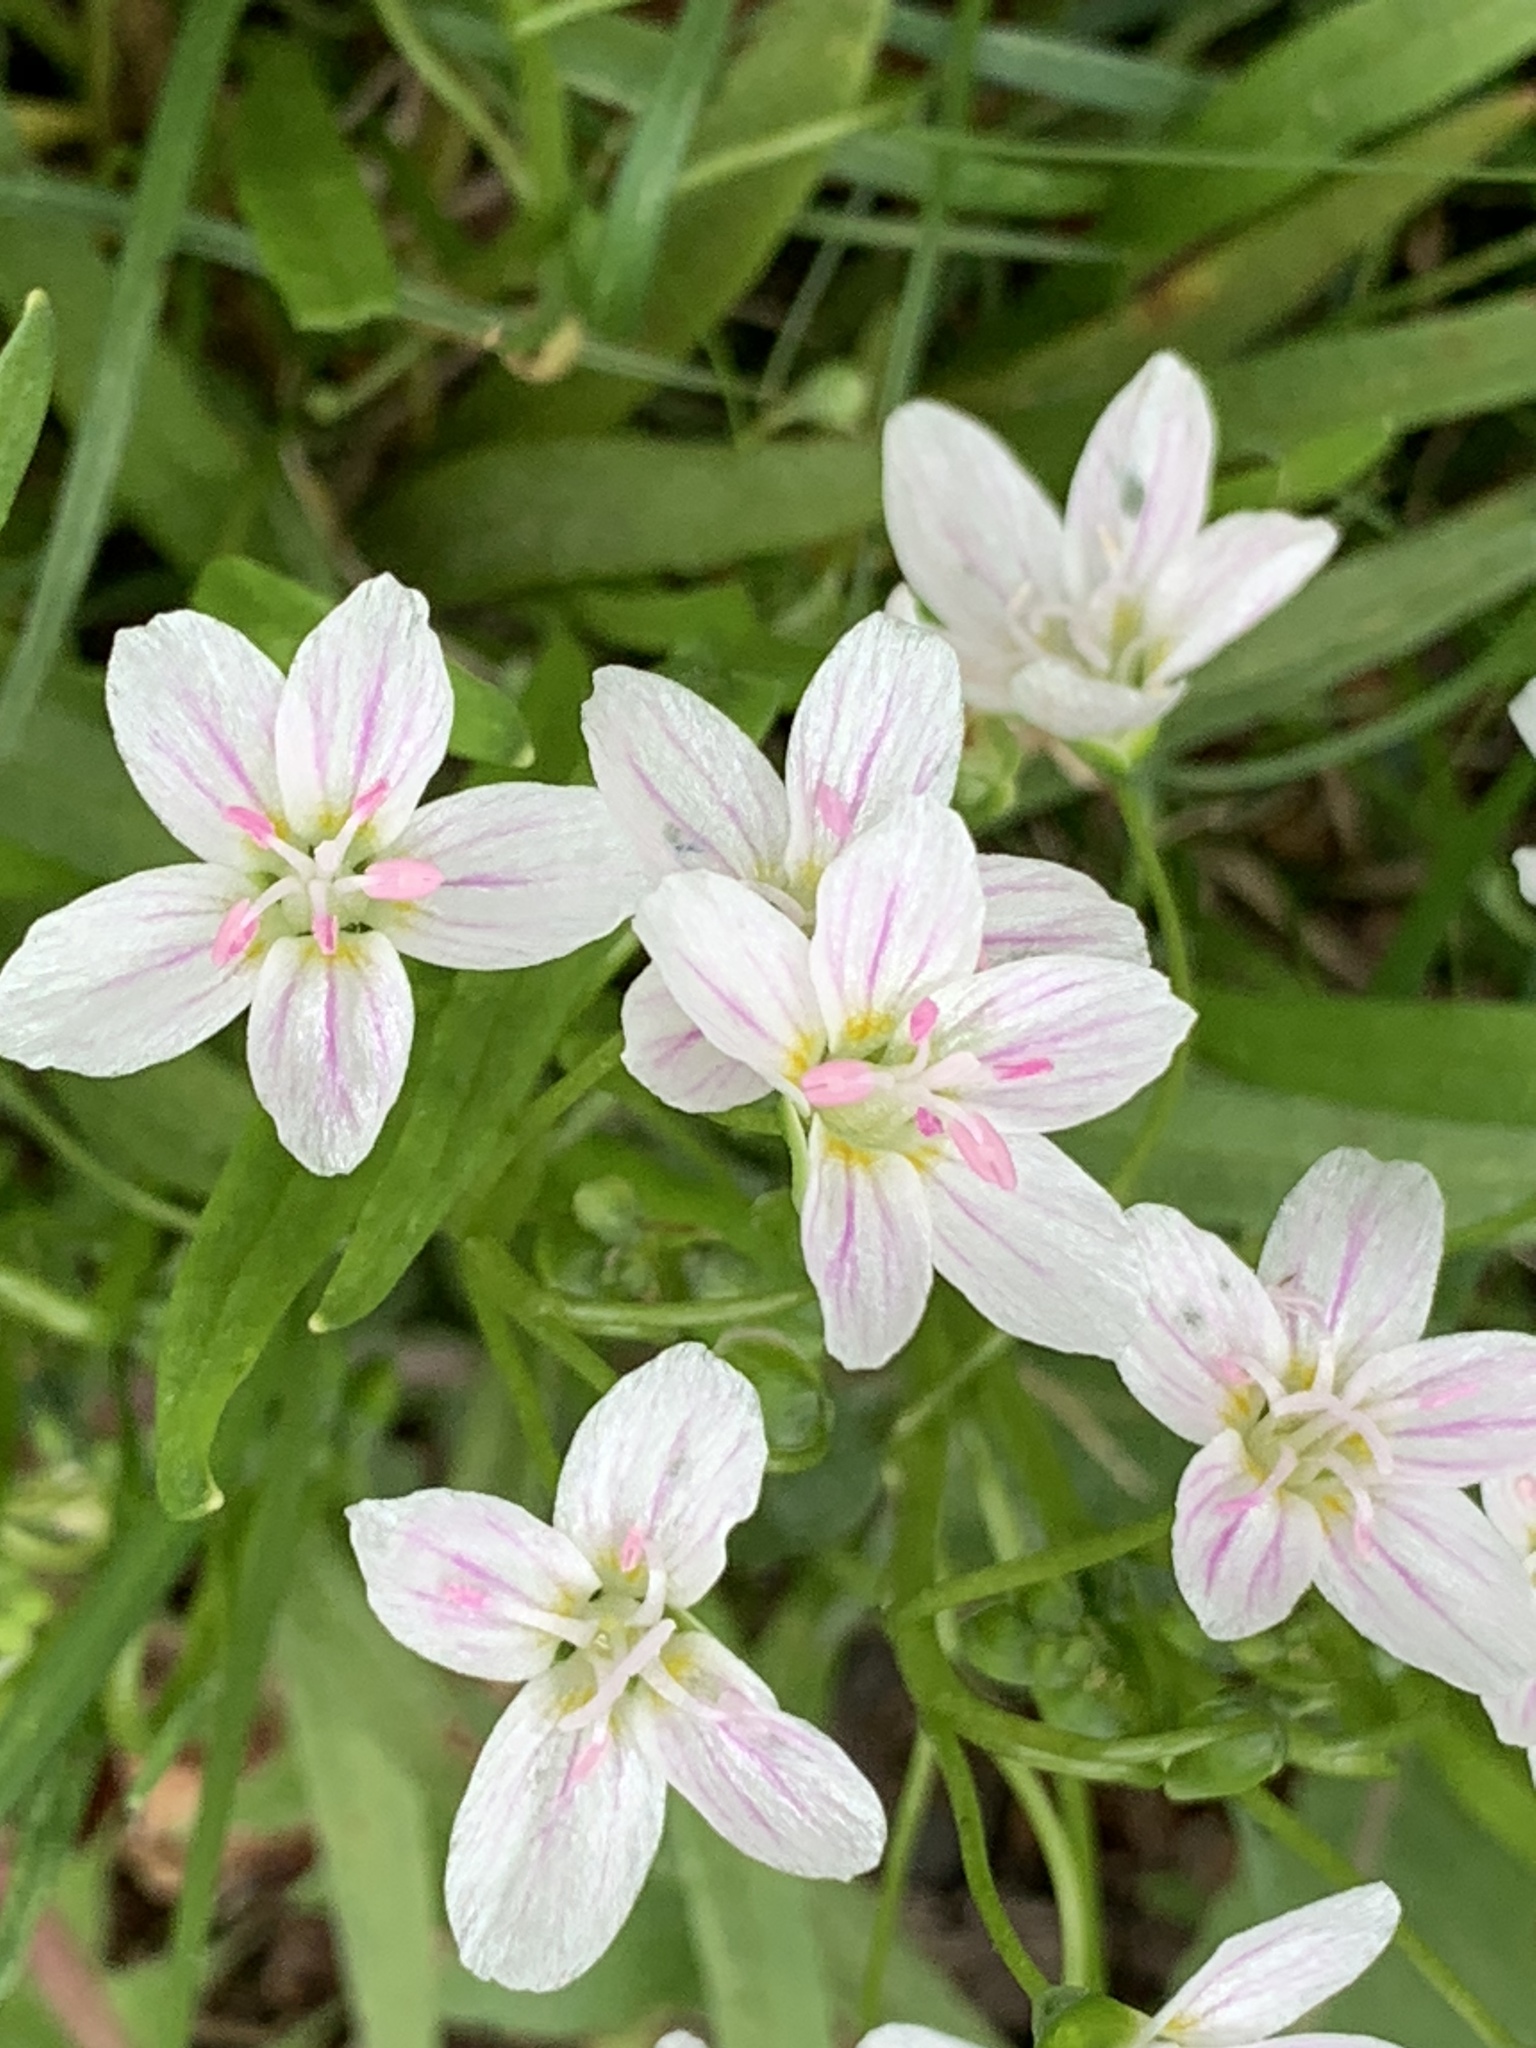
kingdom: Plantae
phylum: Tracheophyta
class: Magnoliopsida
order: Caryophyllales
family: Montiaceae
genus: Claytonia
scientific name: Claytonia virginica
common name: Virginia springbeauty
